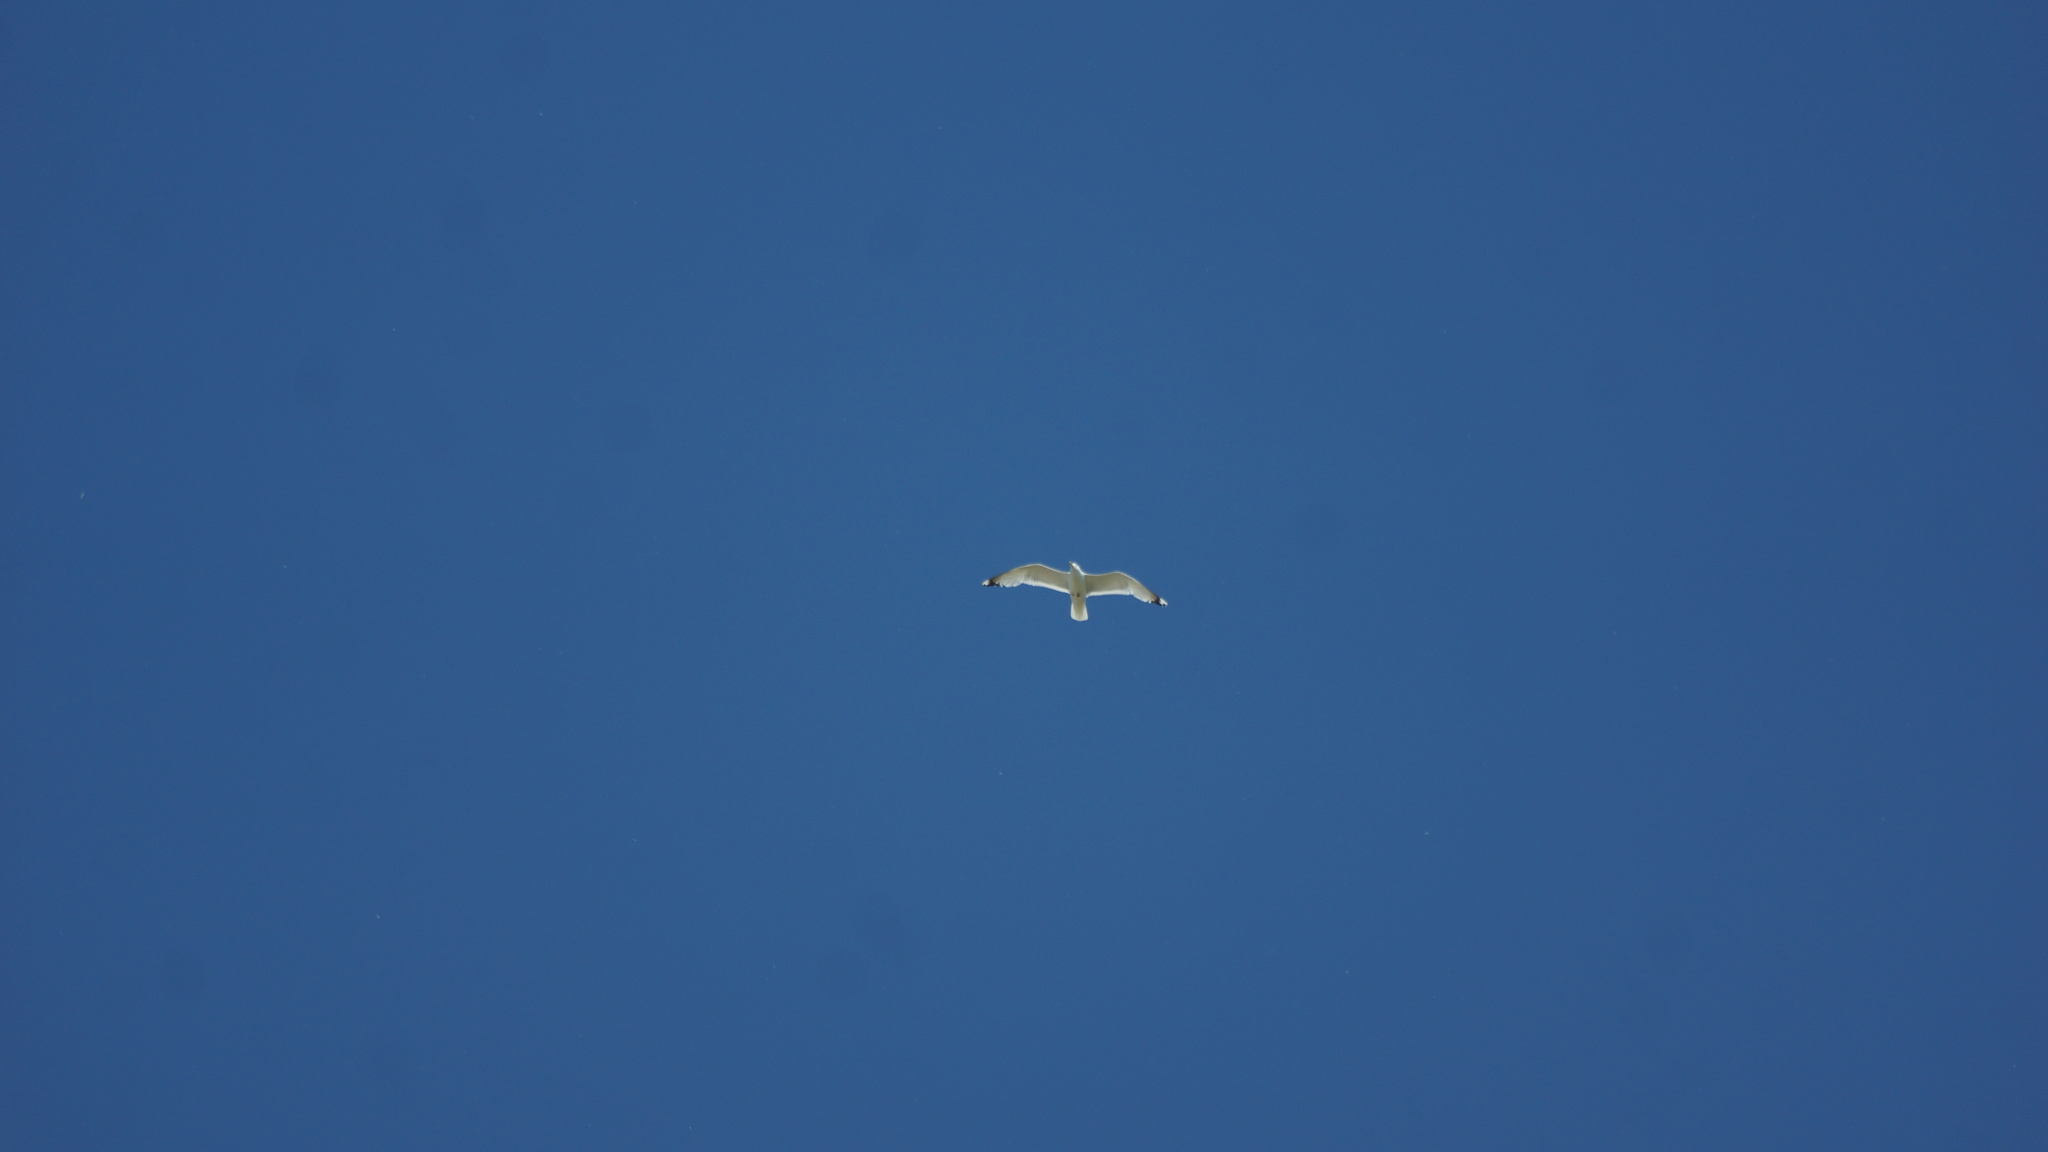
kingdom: Animalia
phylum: Chordata
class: Aves
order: Charadriiformes
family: Laridae
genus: Larus
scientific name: Larus cachinnans
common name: Caspian gull
